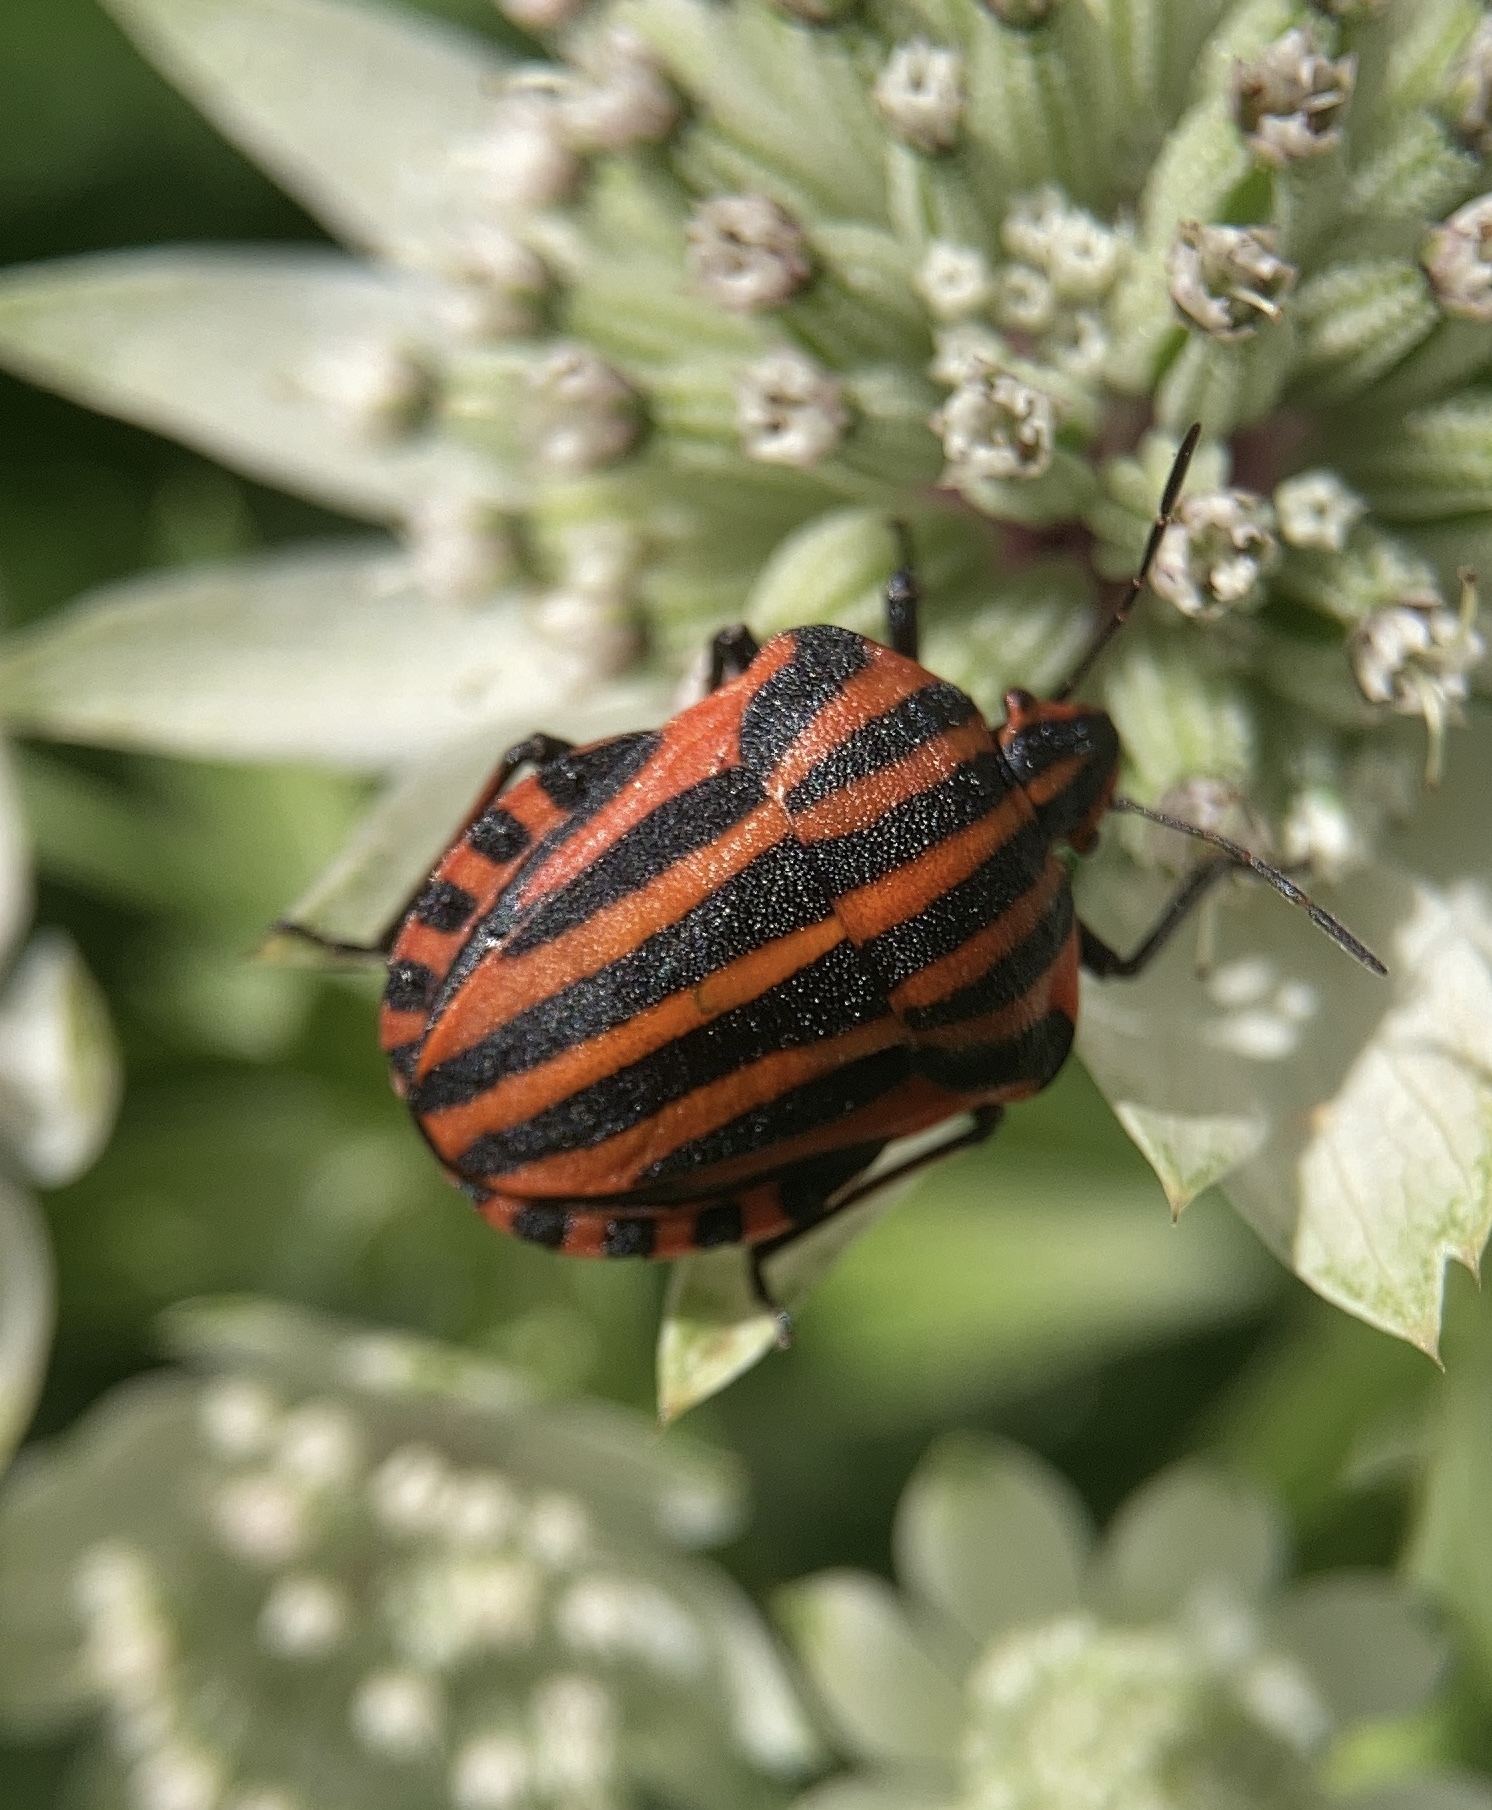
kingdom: Animalia
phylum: Arthropoda
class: Insecta
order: Hemiptera
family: Pentatomidae
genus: Graphosoma
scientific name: Graphosoma italicum
